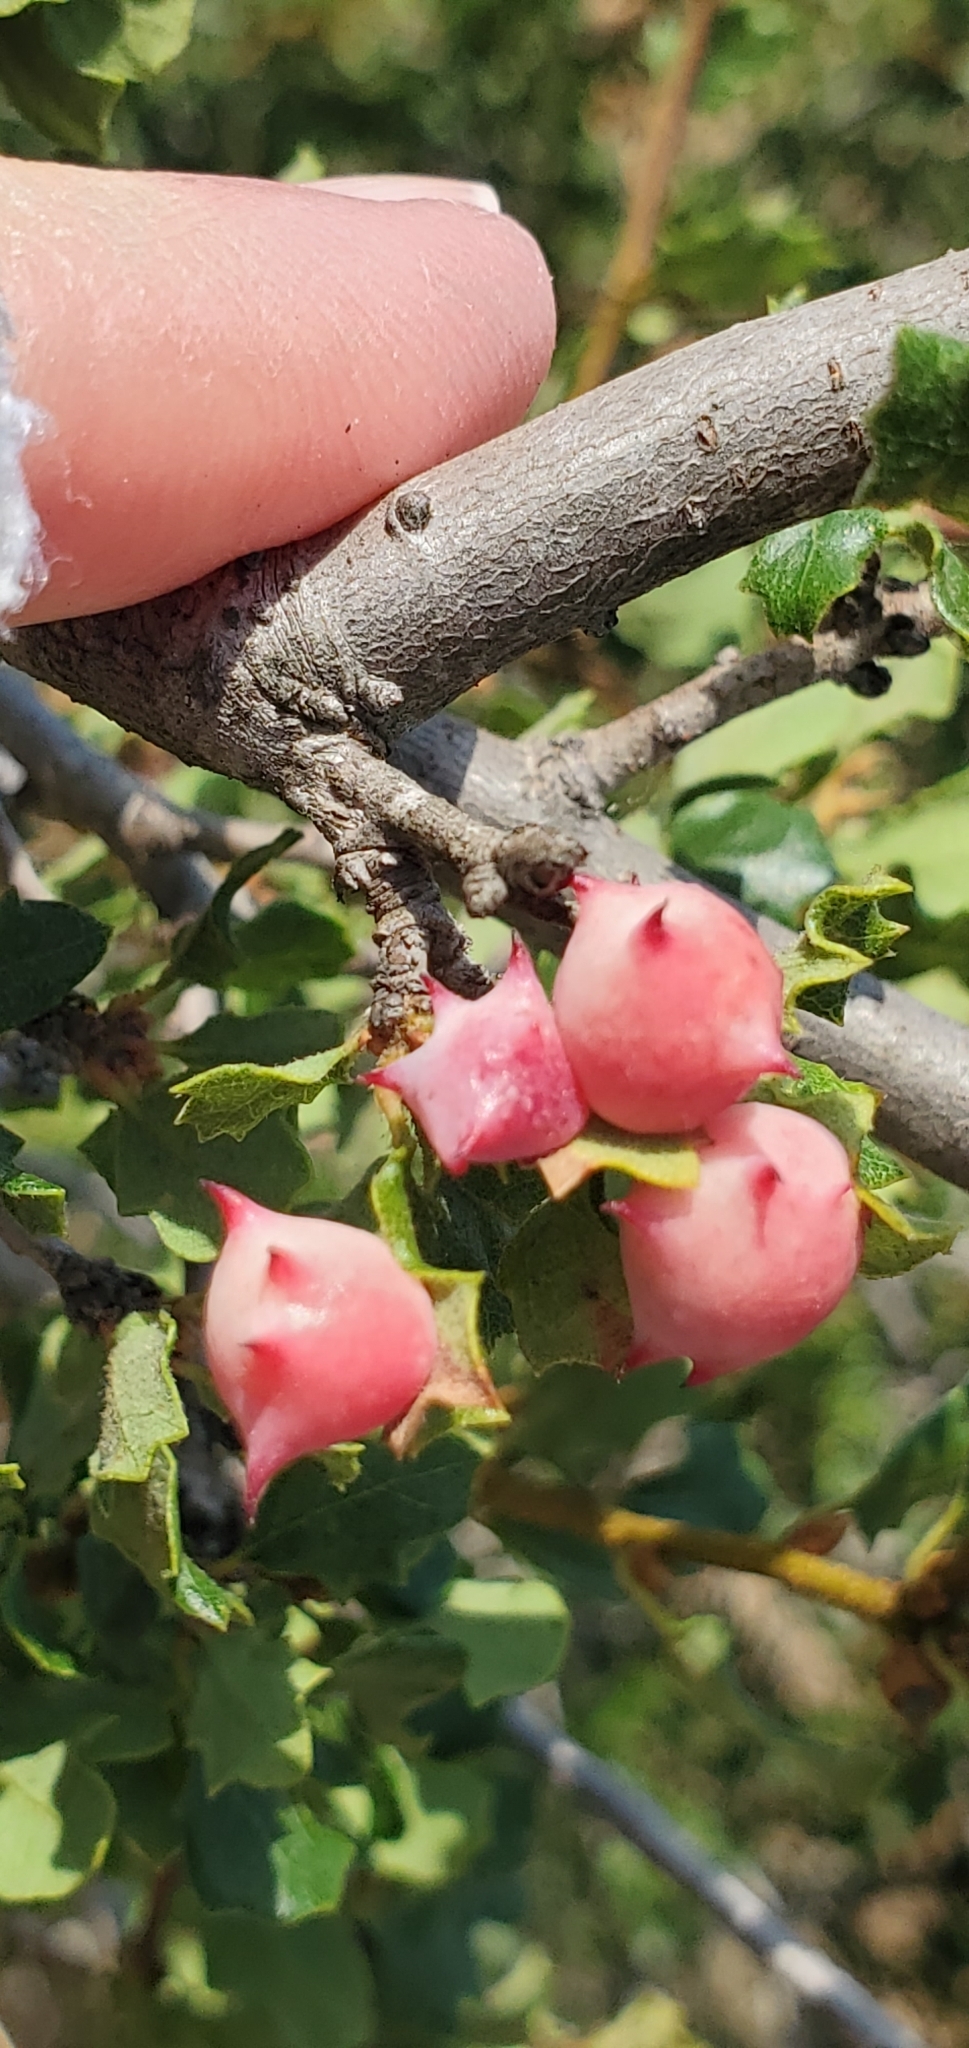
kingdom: Animalia
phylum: Arthropoda
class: Insecta
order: Hymenoptera
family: Cynipidae
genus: Cynips
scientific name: Cynips douglasi
